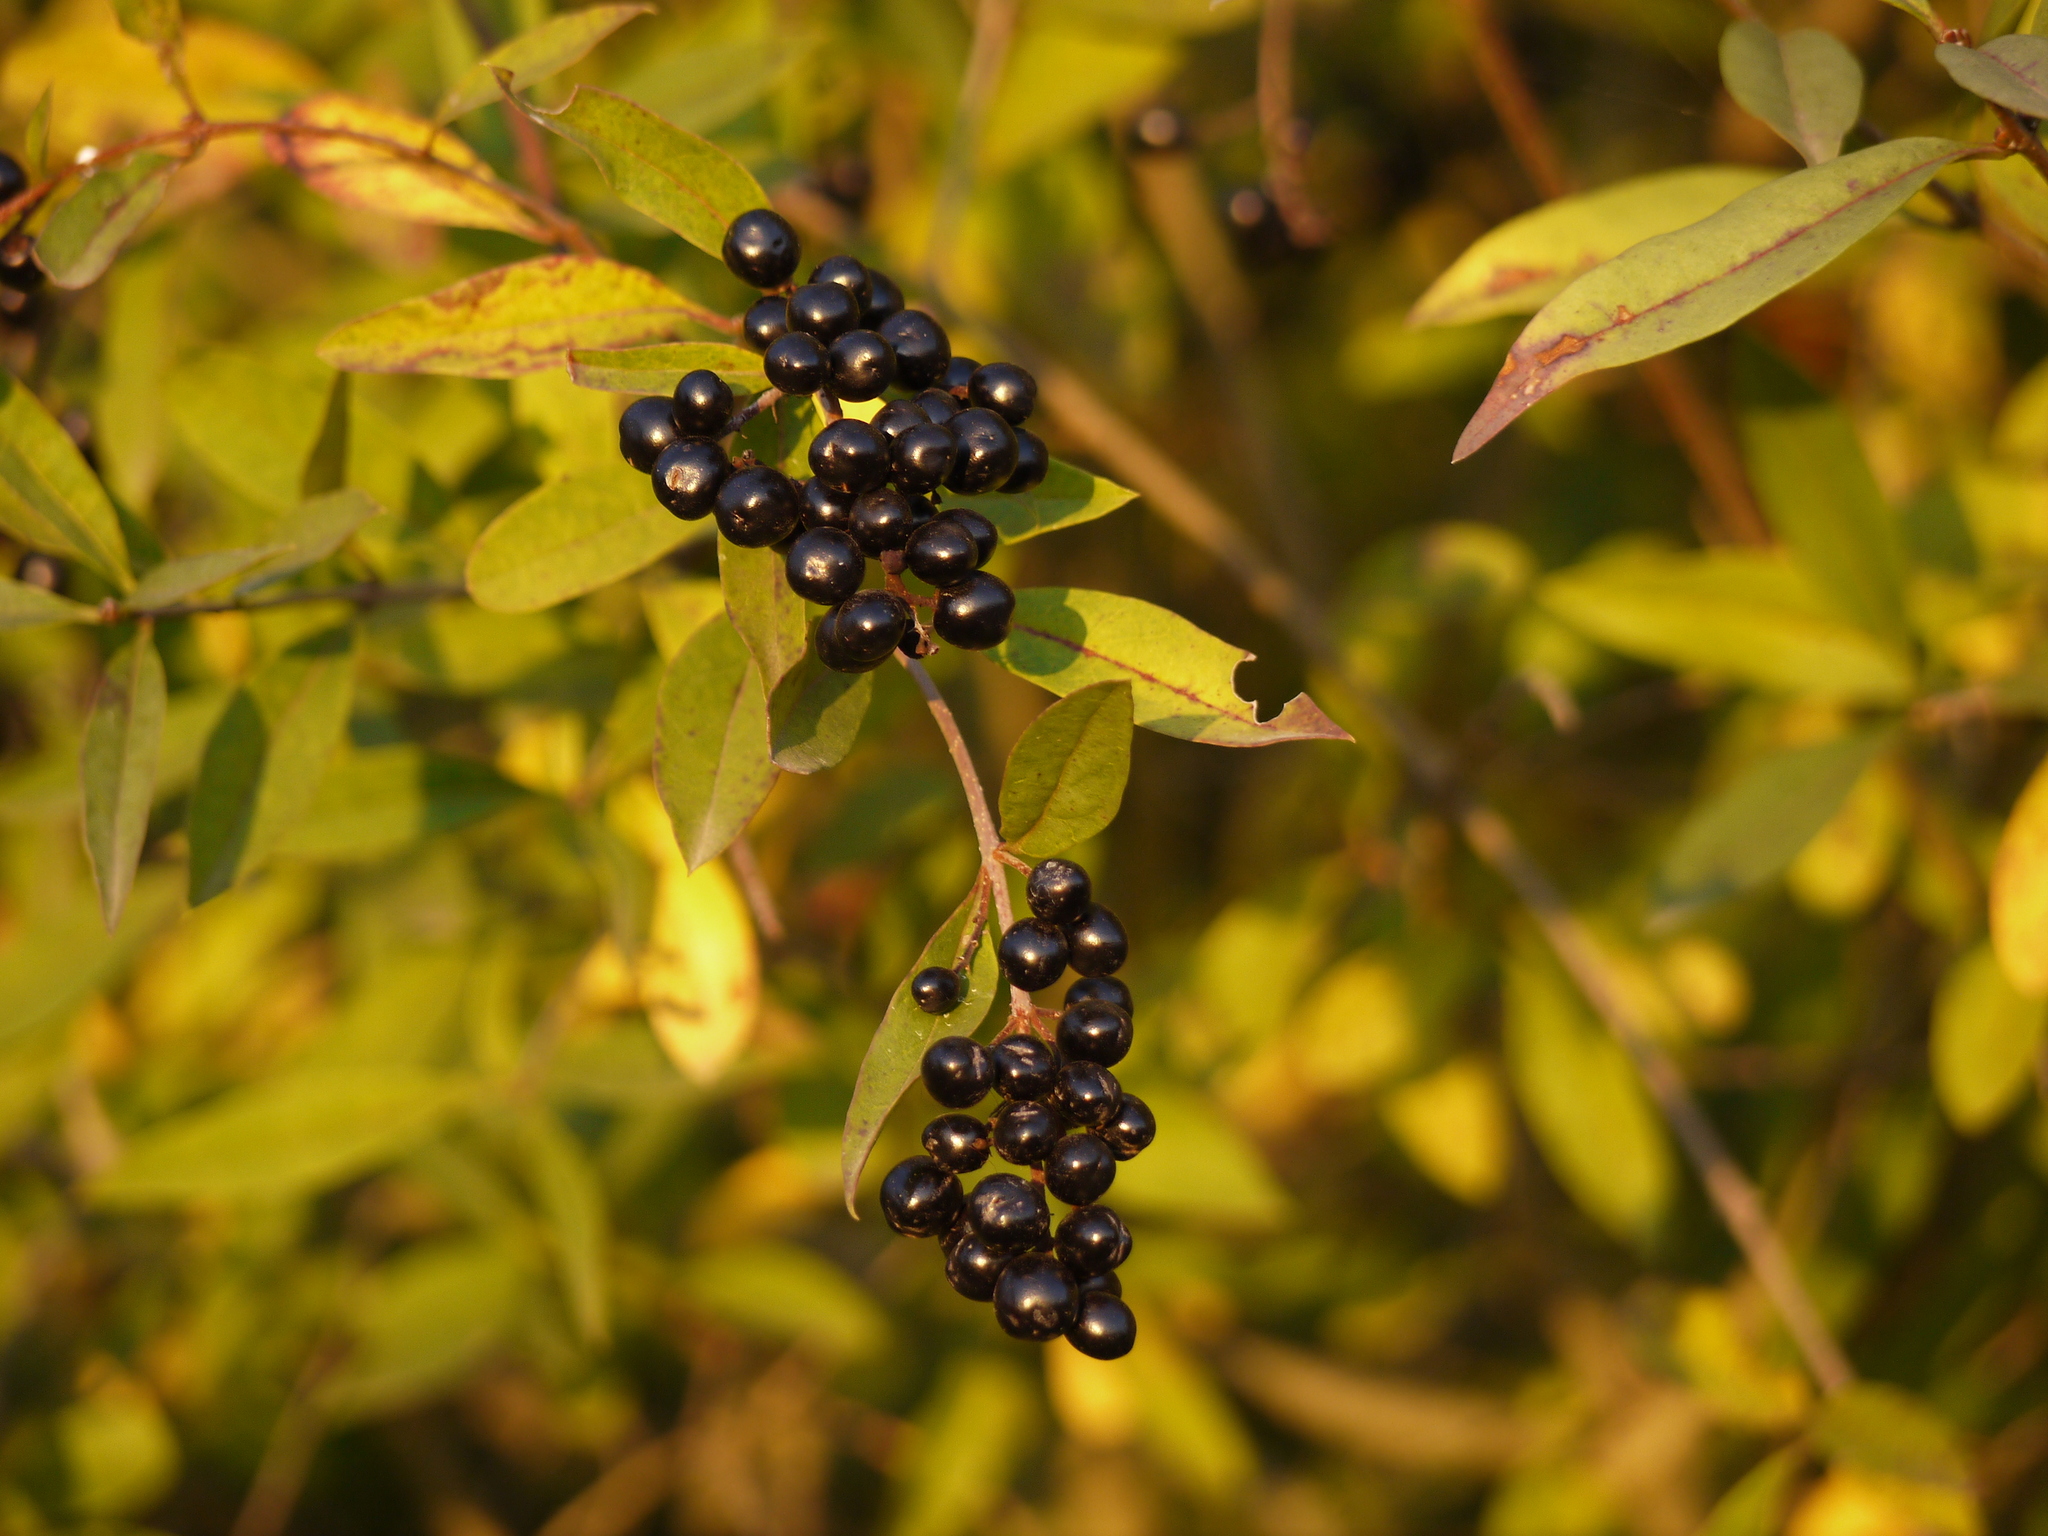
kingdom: Plantae
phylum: Tracheophyta
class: Magnoliopsida
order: Lamiales
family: Oleaceae
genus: Ligustrum
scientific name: Ligustrum vulgare
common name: Wild privet
